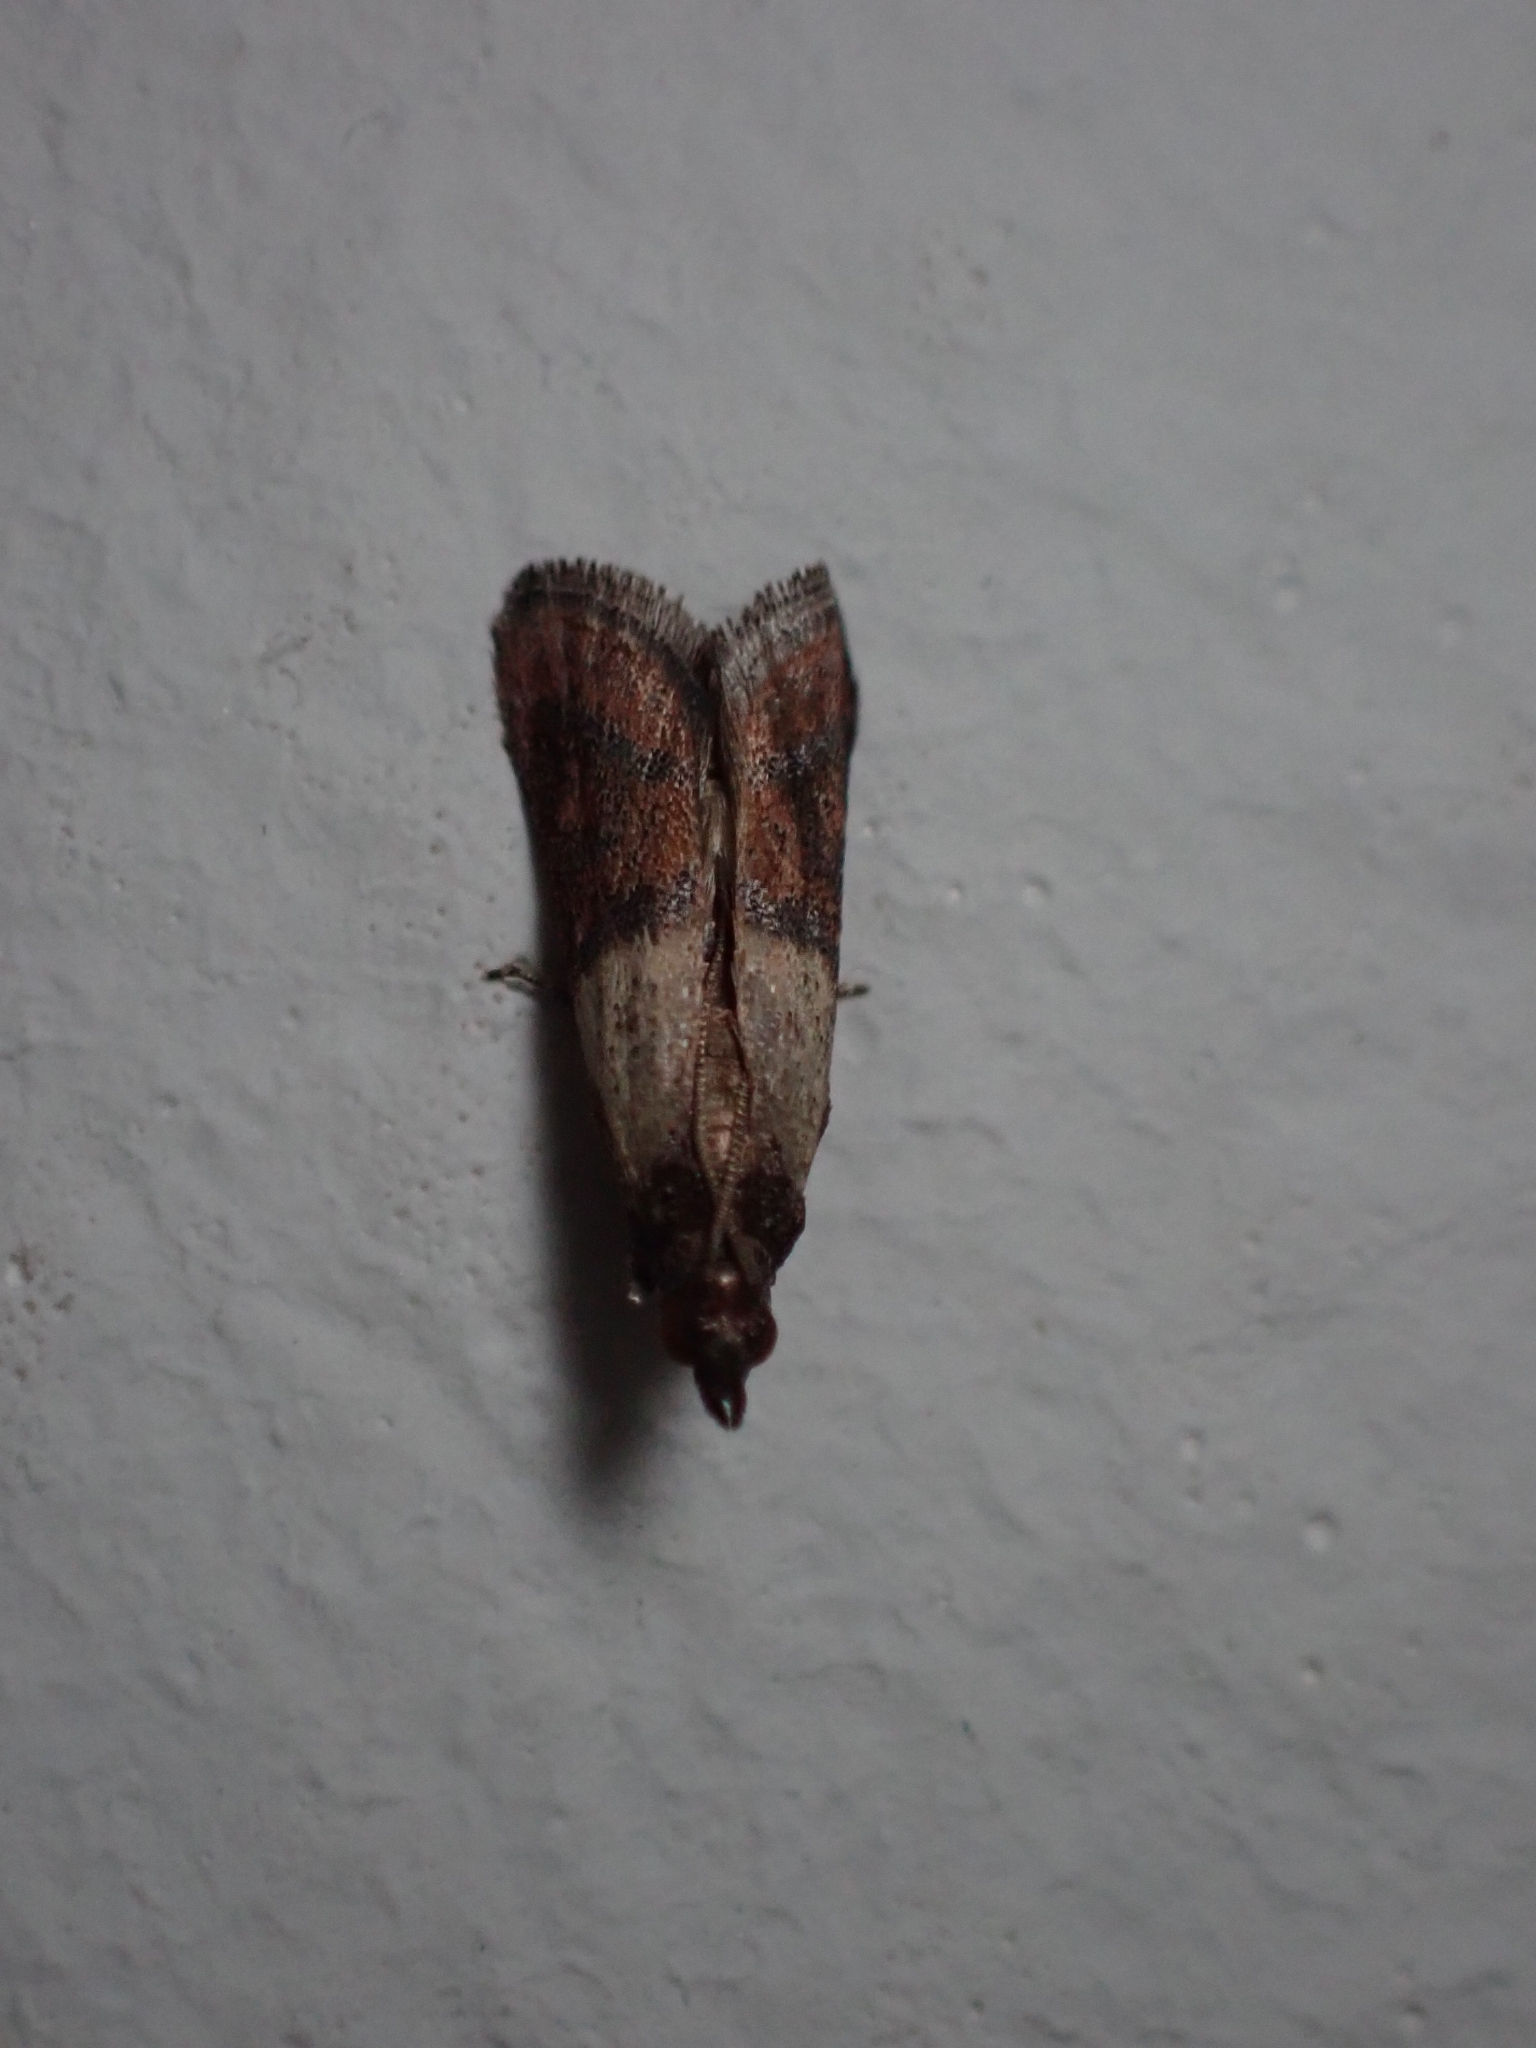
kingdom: Animalia
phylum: Arthropoda
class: Insecta
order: Lepidoptera
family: Pyralidae
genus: Plodia
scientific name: Plodia interpunctella
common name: Indian meal moth
